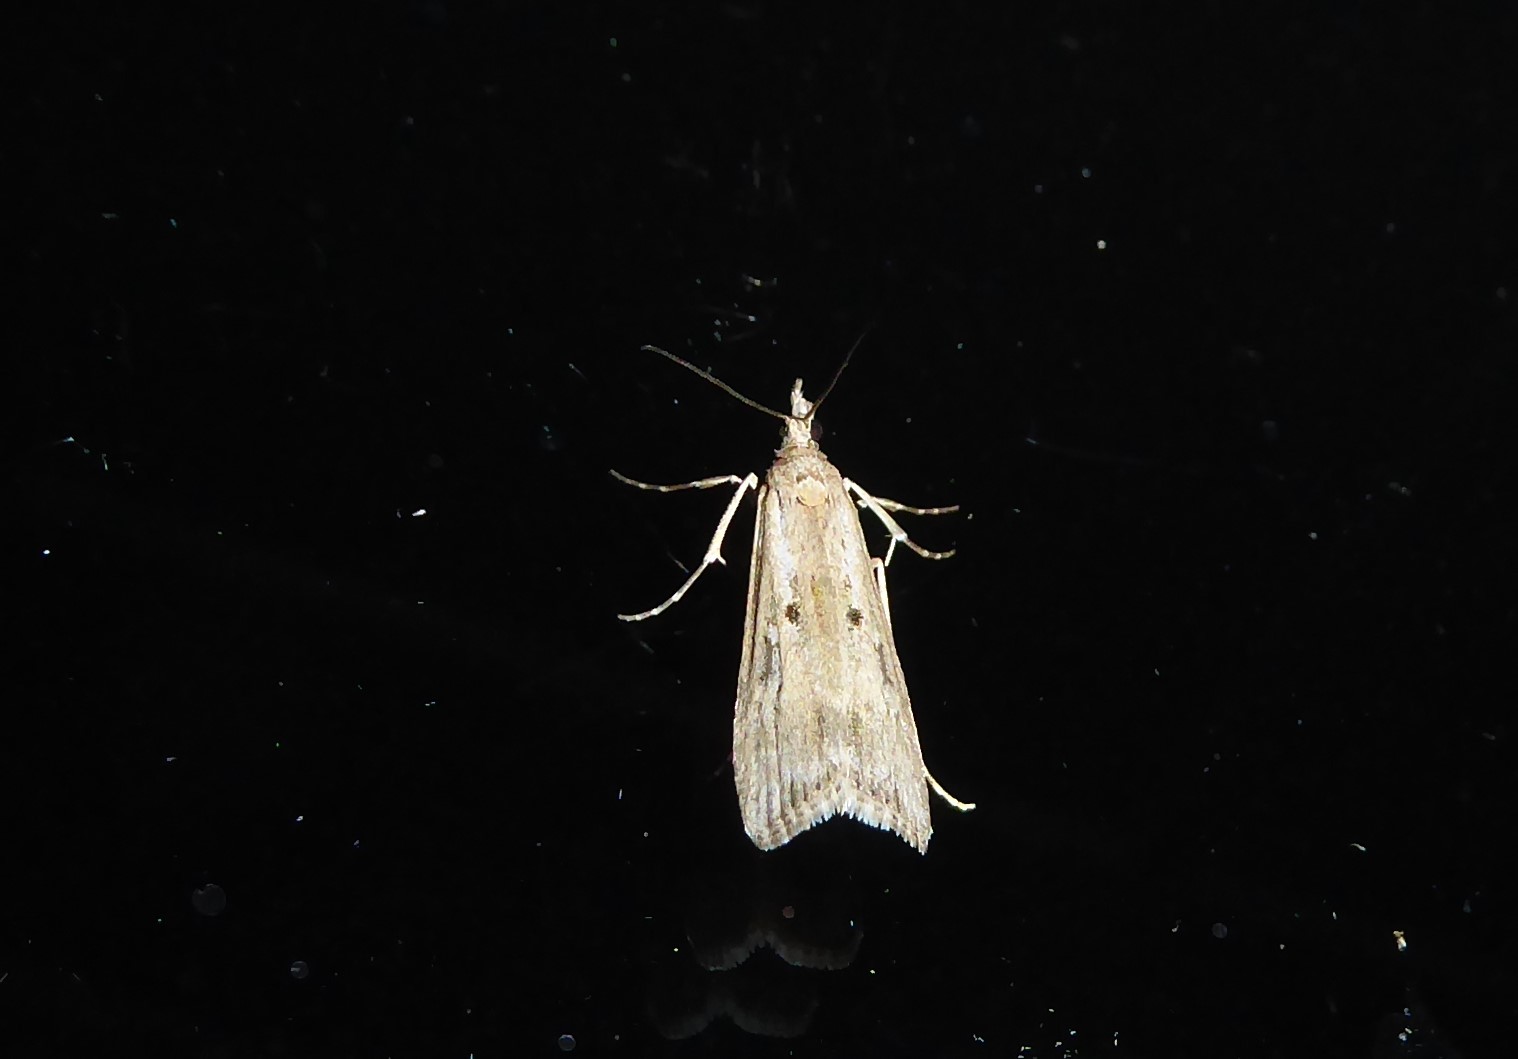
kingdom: Animalia
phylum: Arthropoda
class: Insecta
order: Lepidoptera
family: Crambidae
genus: Eudonia
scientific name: Eudonia leptalea
